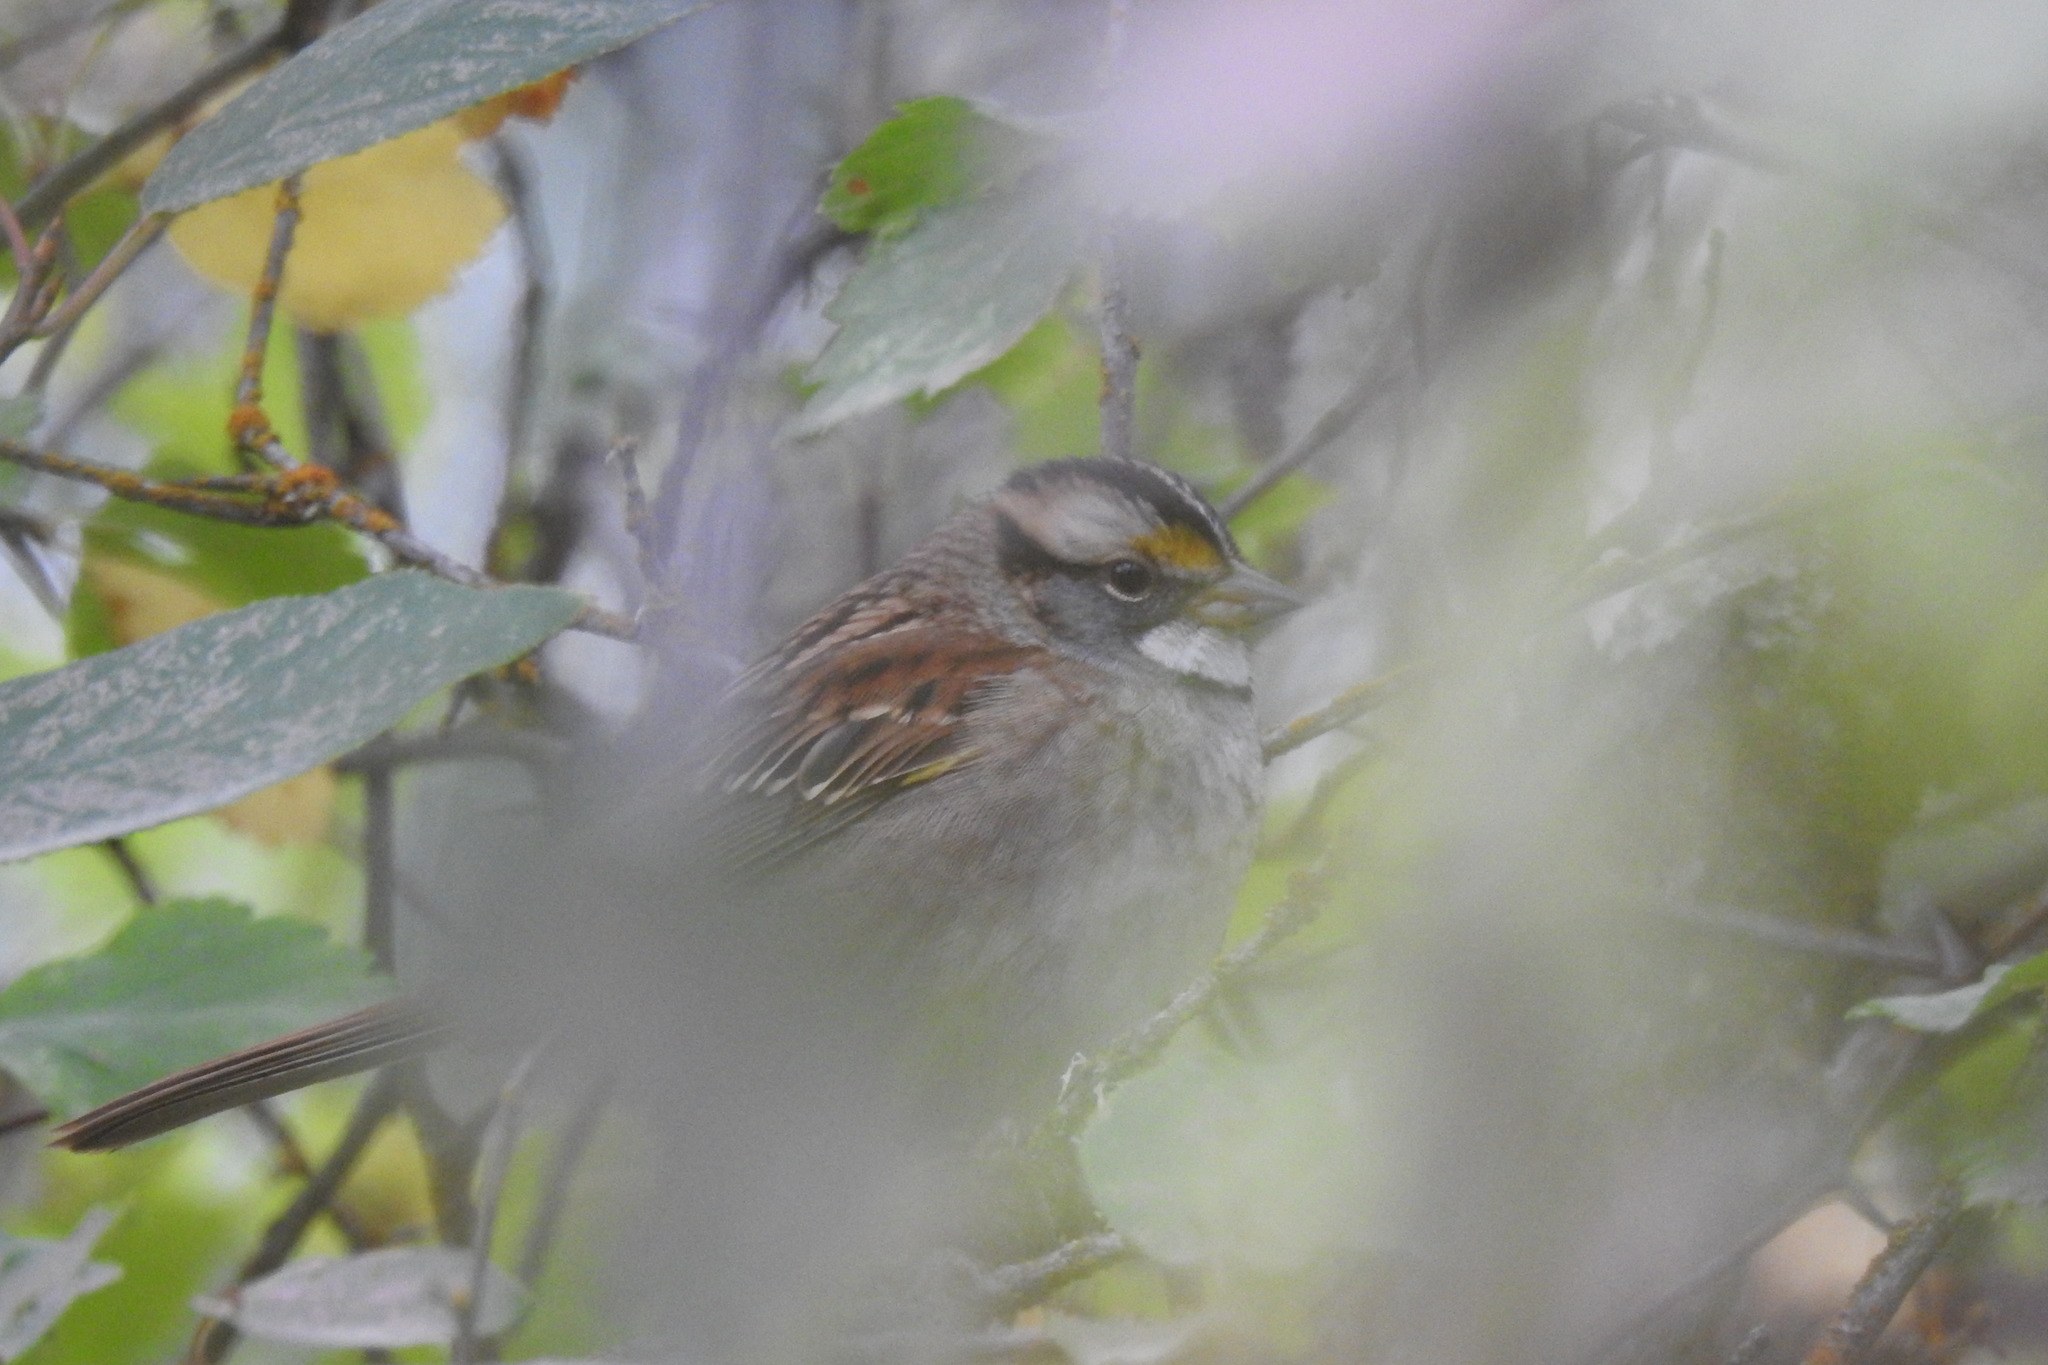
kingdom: Animalia
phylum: Chordata
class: Aves
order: Passeriformes
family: Passerellidae
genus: Zonotrichia
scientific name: Zonotrichia albicollis
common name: White-throated sparrow
